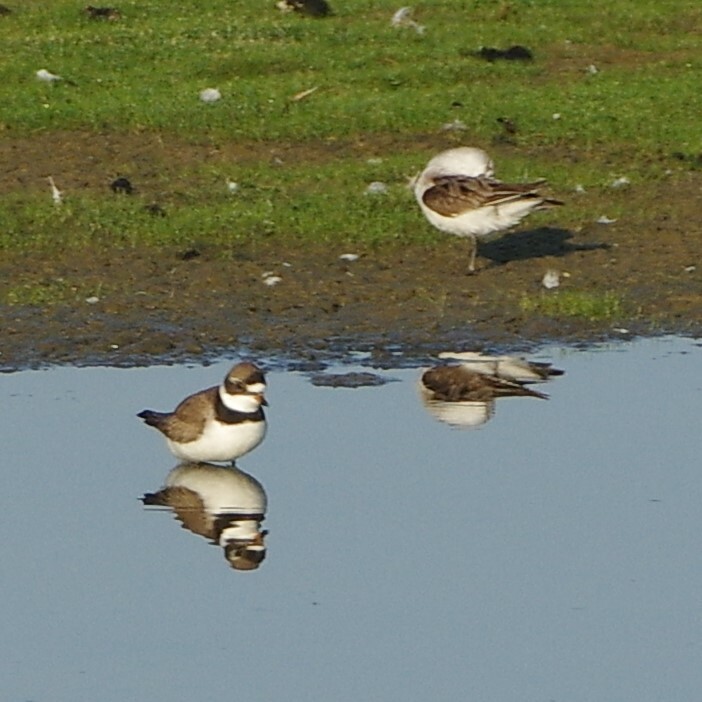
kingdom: Animalia
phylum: Chordata
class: Aves
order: Charadriiformes
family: Charadriidae
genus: Charadrius
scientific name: Charadrius semipalmatus
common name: Semipalmated plover
